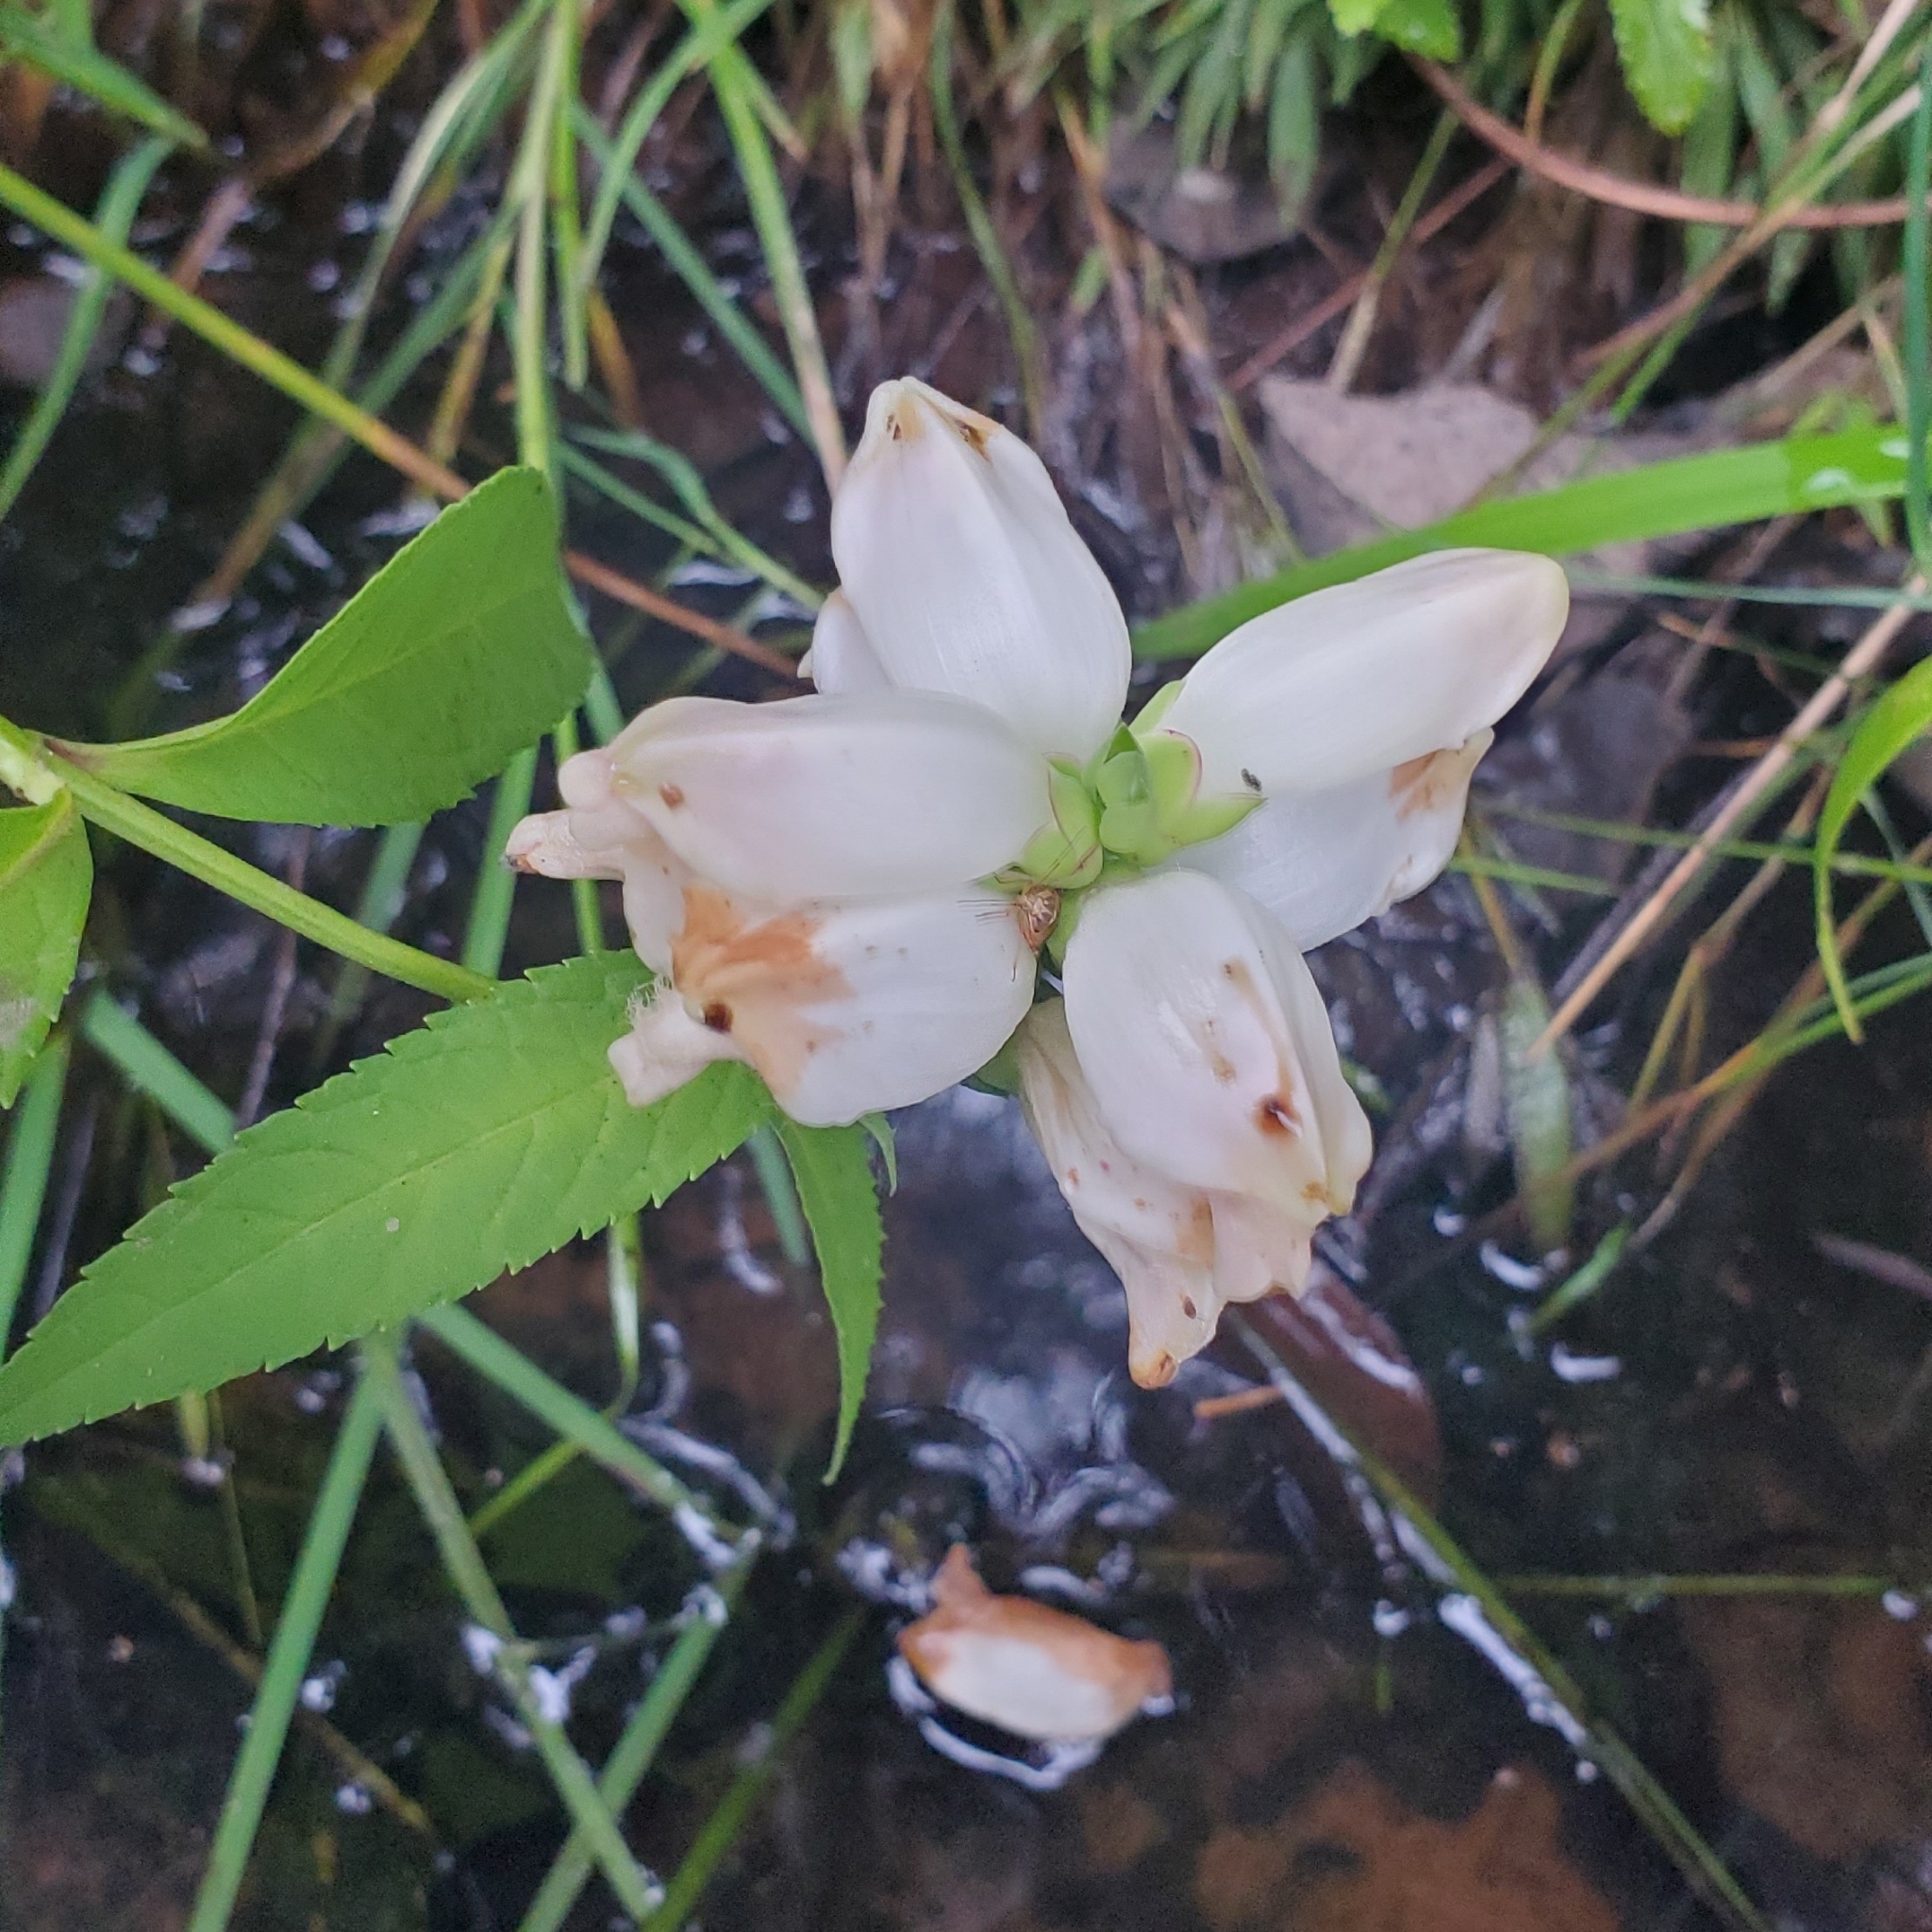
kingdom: Plantae
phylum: Tracheophyta
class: Magnoliopsida
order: Lamiales
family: Plantaginaceae
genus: Chelone
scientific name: Chelone glabra
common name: Snakehead
